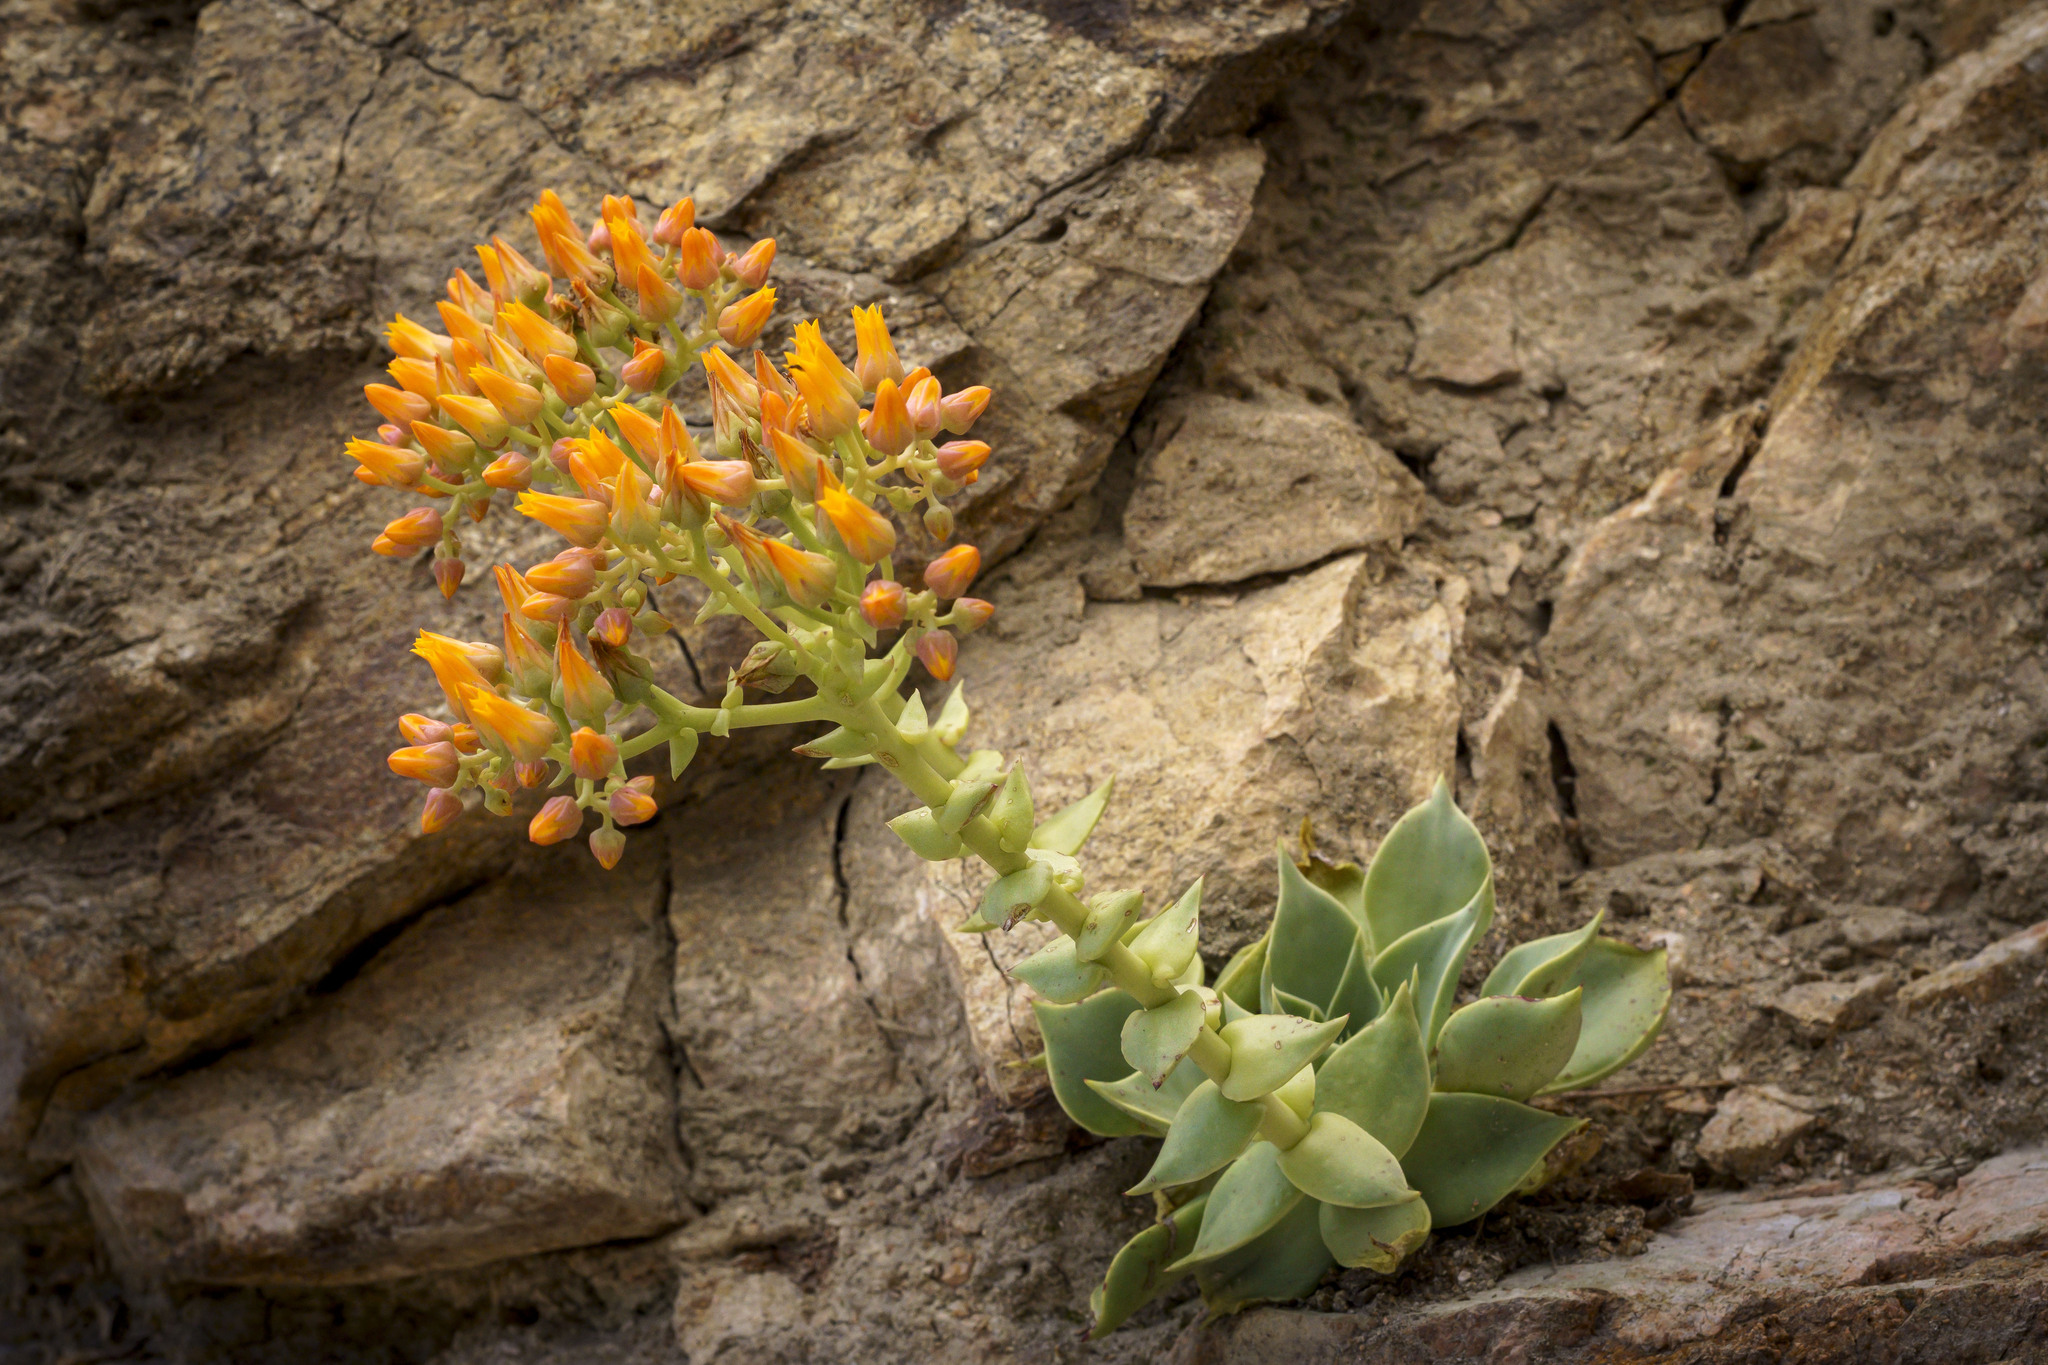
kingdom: Plantae
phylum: Tracheophyta
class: Magnoliopsida
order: Saxifragales
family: Crassulaceae
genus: Dudleya
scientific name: Dudleya cymosa
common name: Canyon dudleya
